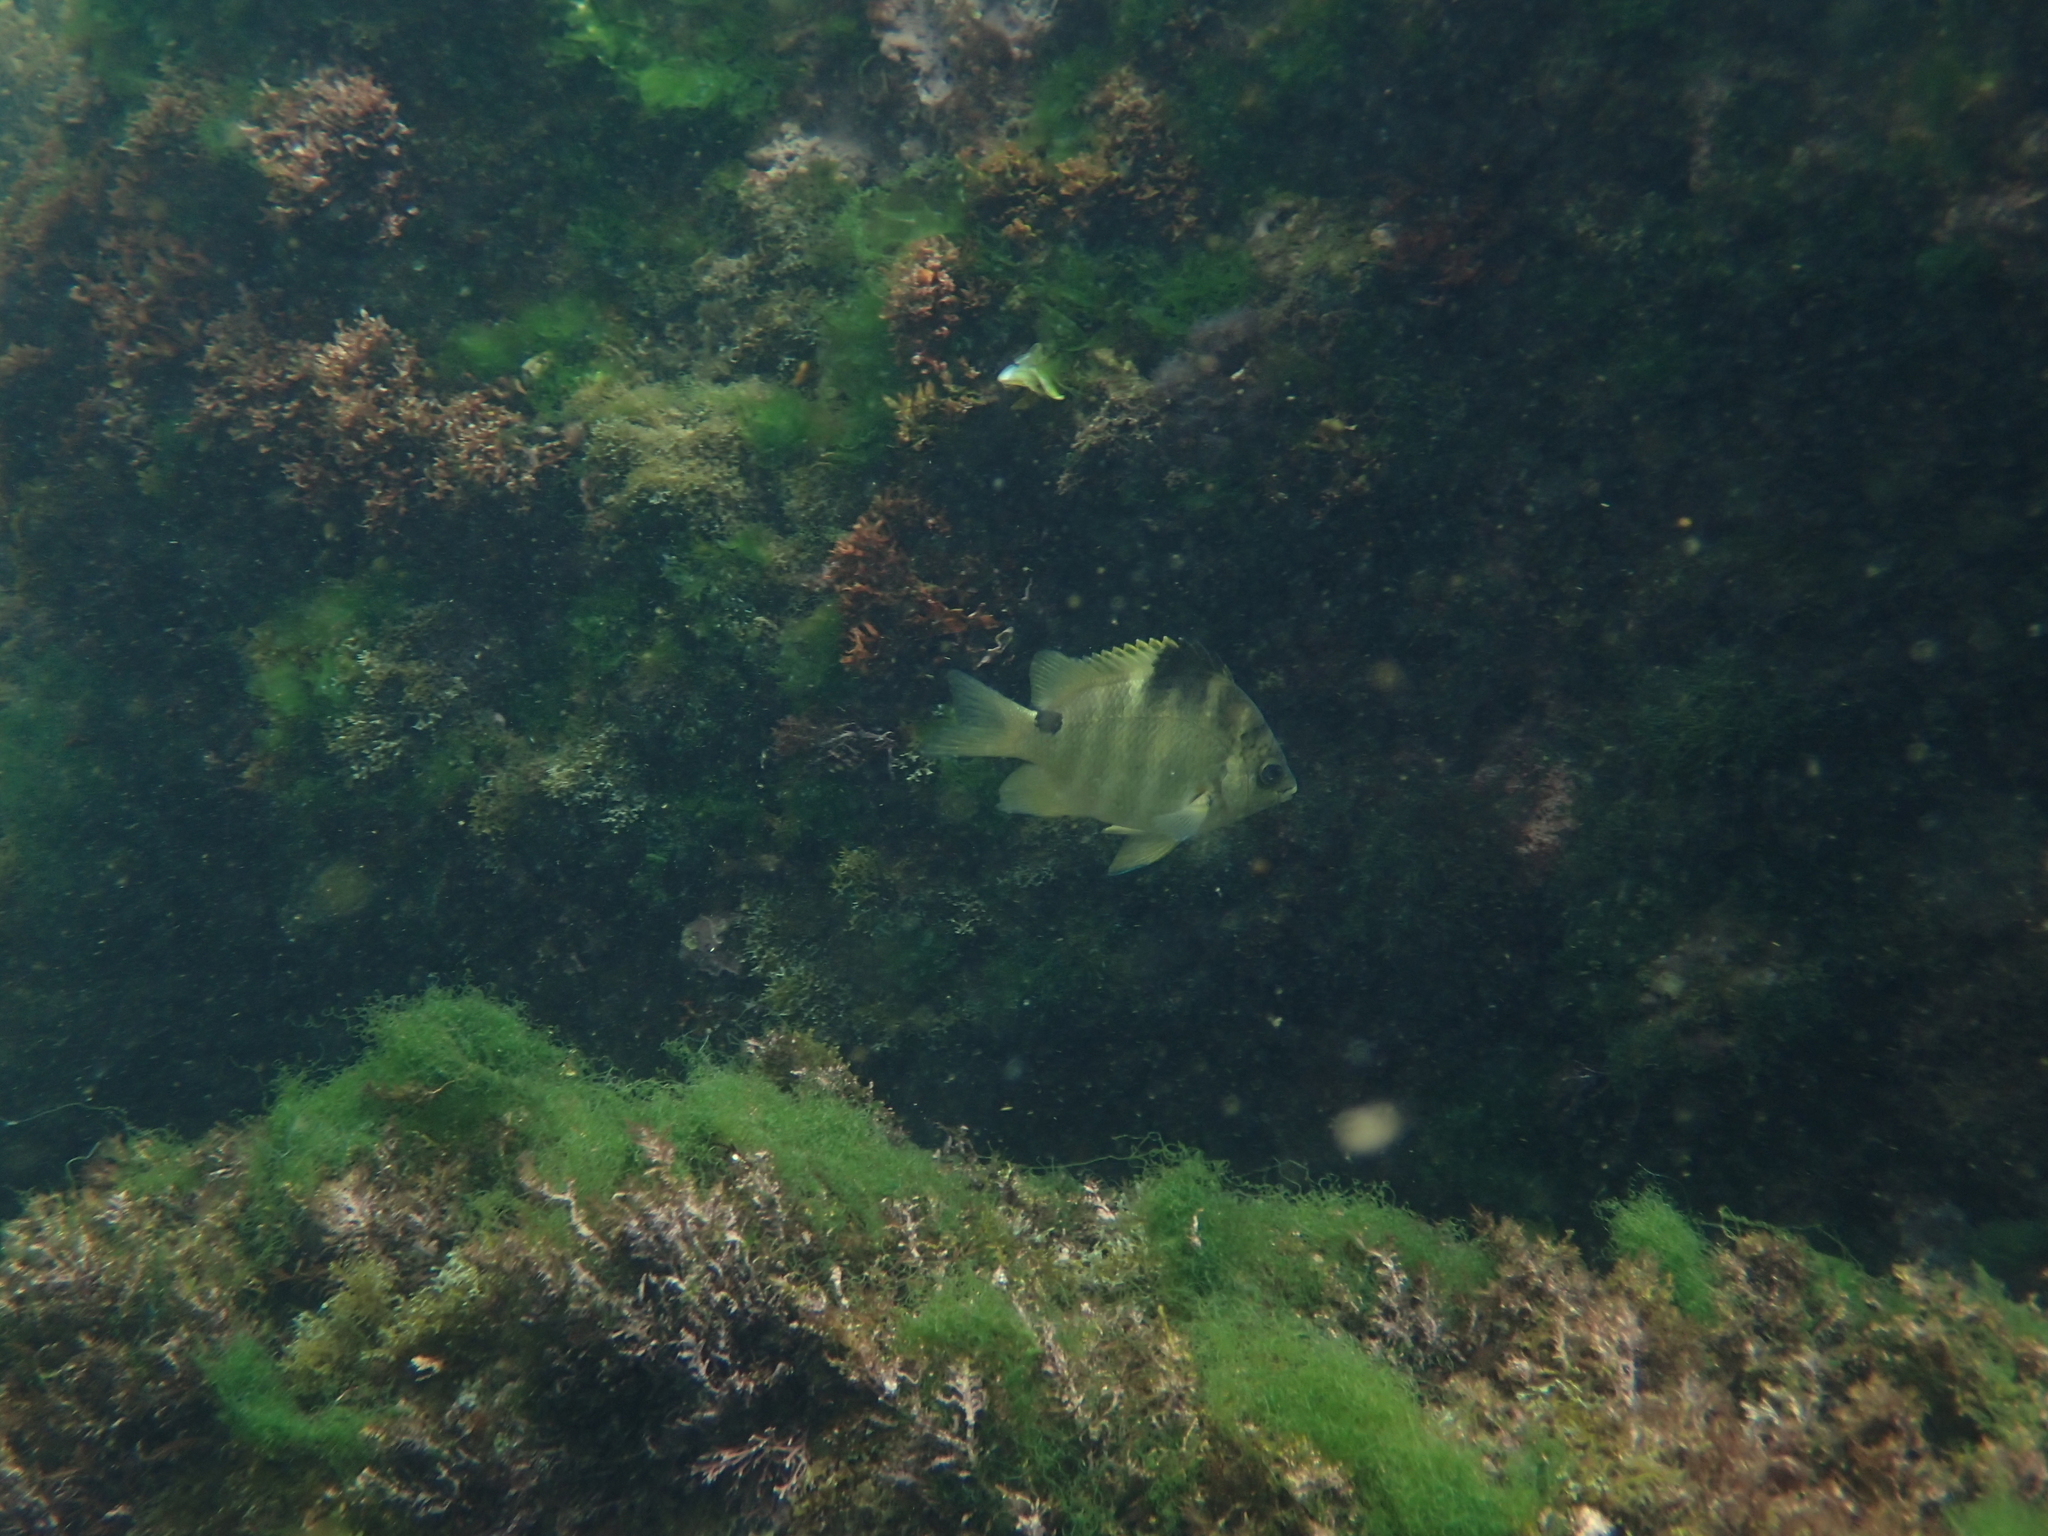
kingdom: Animalia
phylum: Chordata
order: Perciformes
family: Pomacentridae
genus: Abudefduf
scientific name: Abudefduf sordidus
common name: Blackspot sergeant
